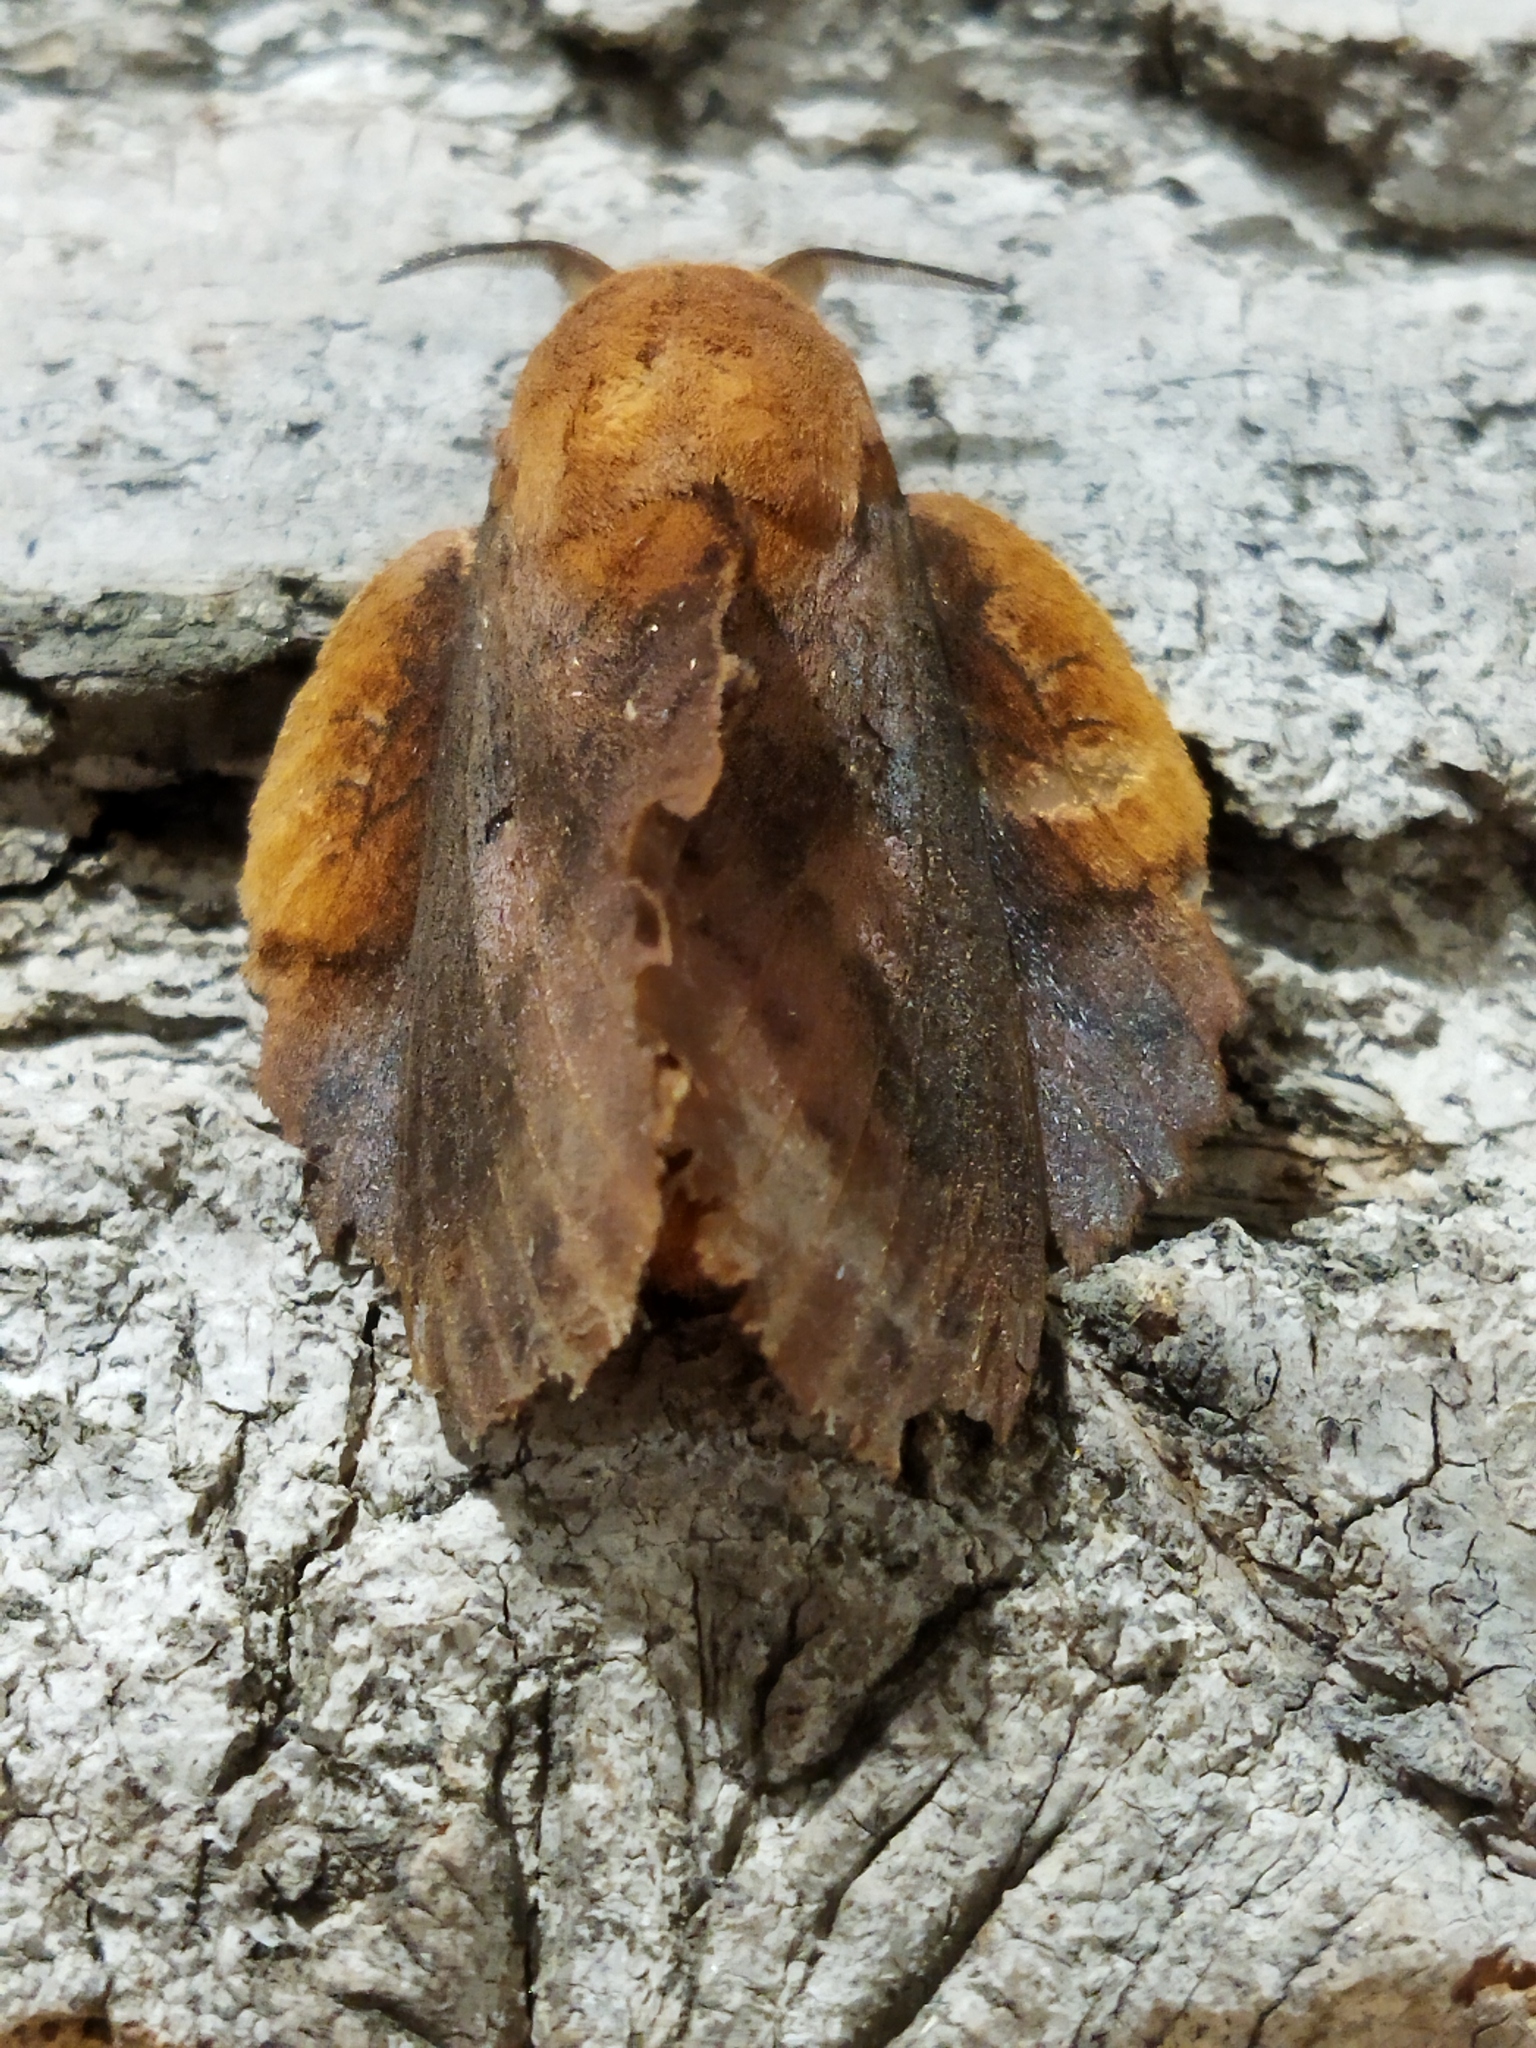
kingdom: Animalia
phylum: Arthropoda
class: Insecta
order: Lepidoptera
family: Lasiocampidae
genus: Gastropacha
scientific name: Gastropacha quercifolia
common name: Lappet
